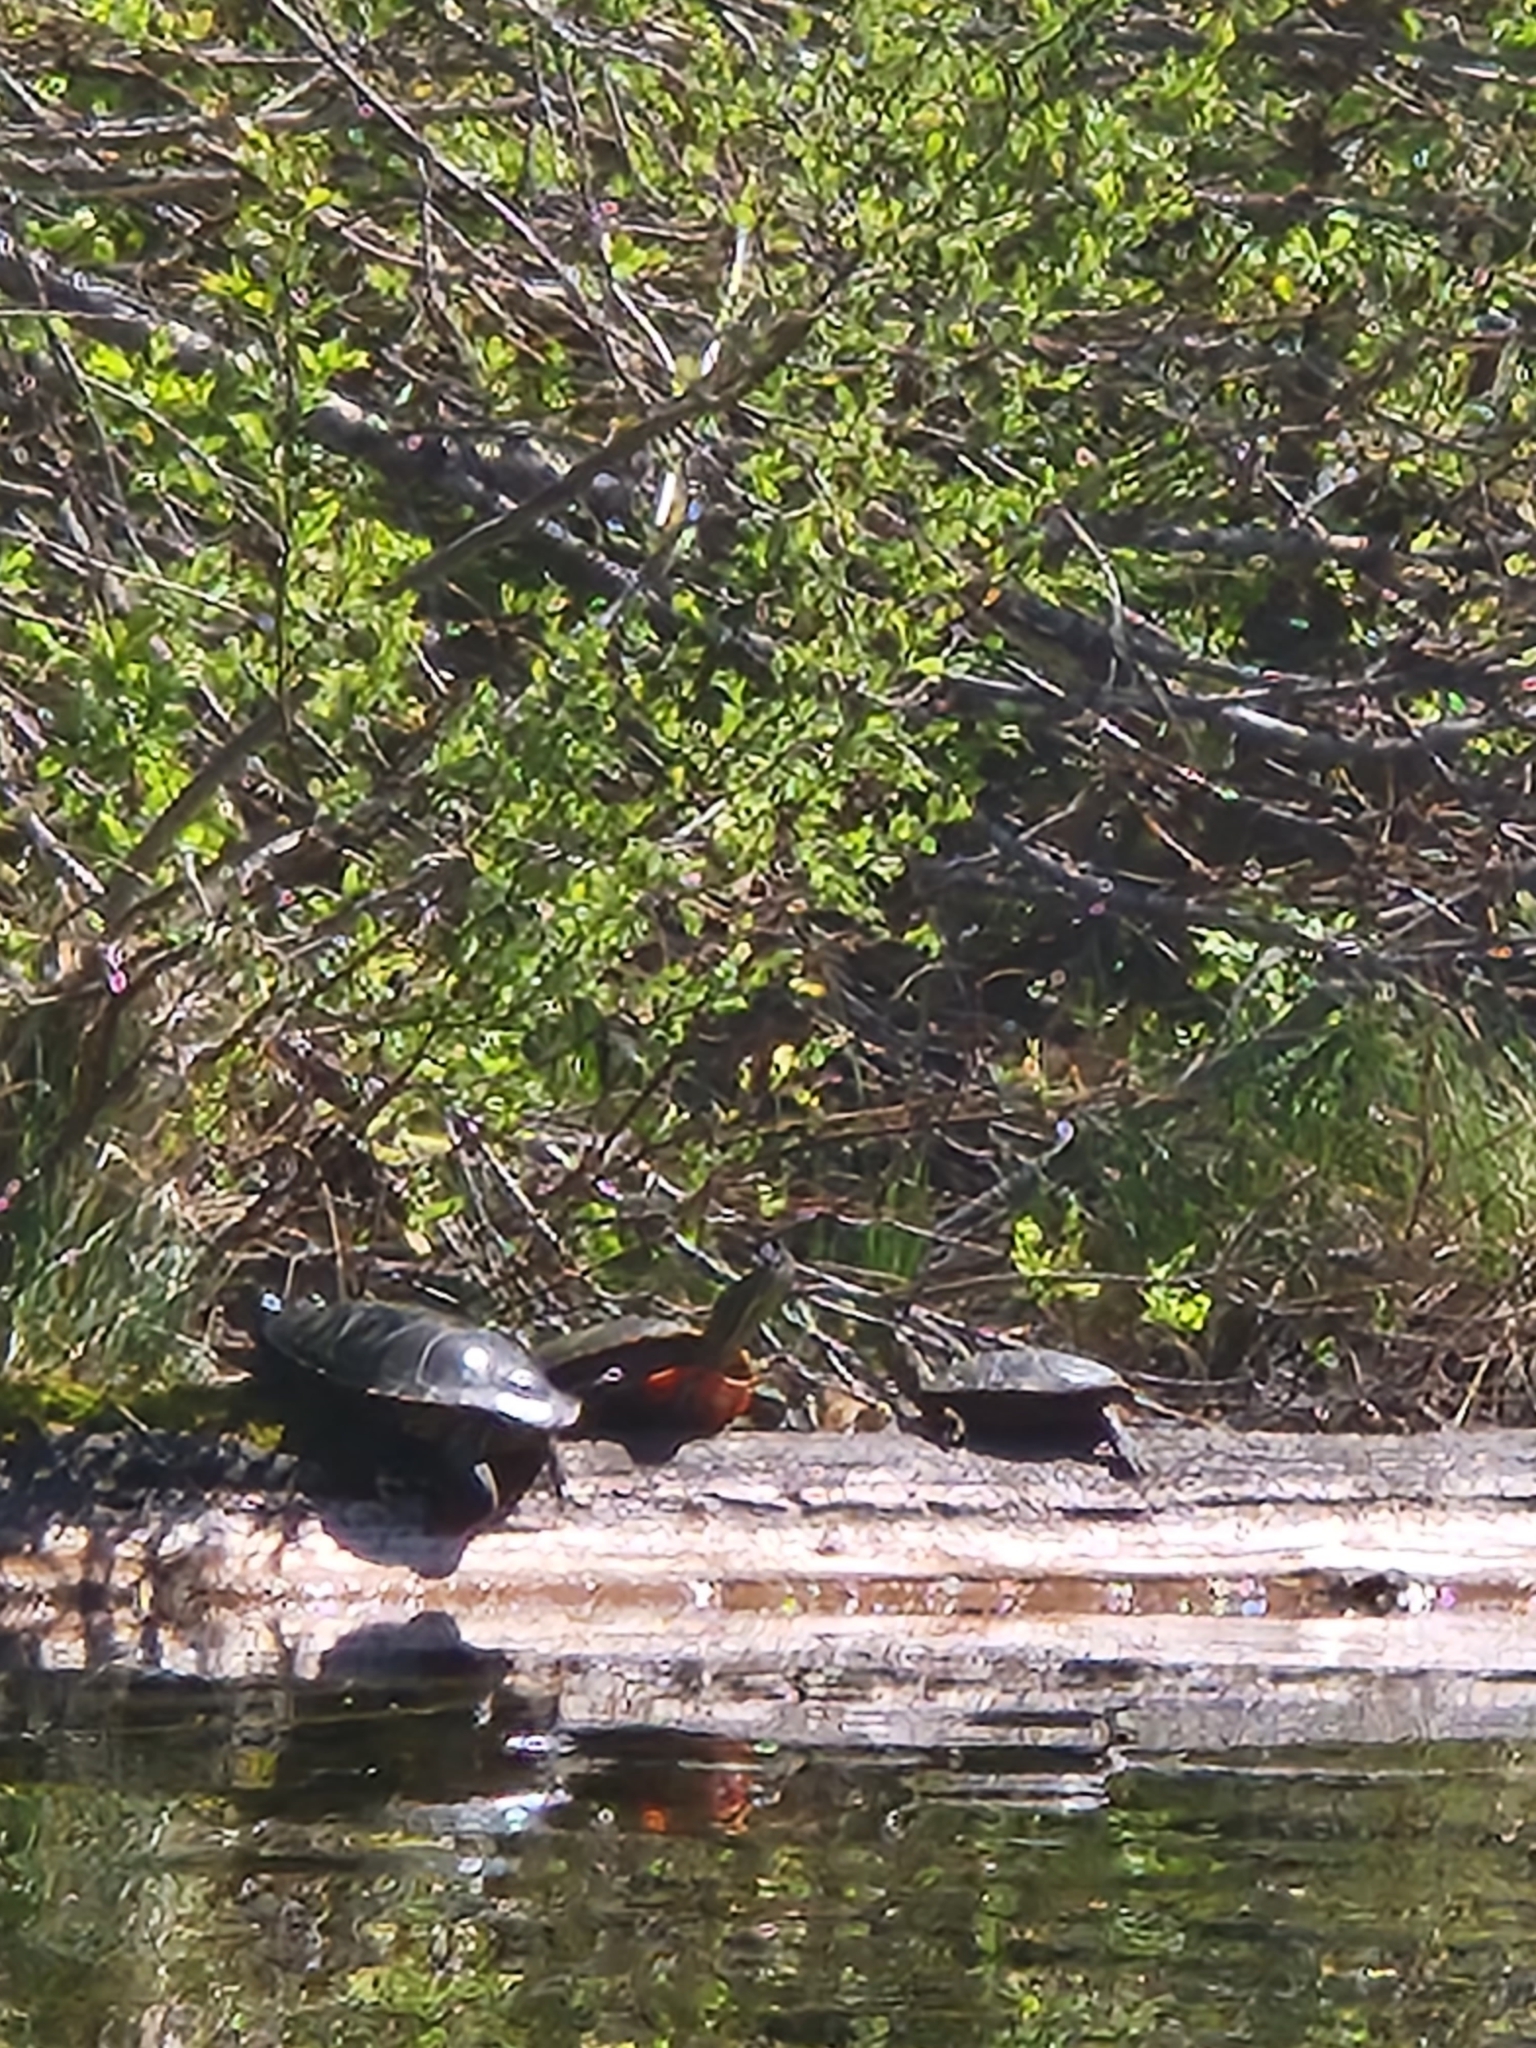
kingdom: Animalia
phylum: Chordata
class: Testudines
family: Emydidae
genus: Chrysemys
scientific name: Chrysemys picta
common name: Painted turtle
